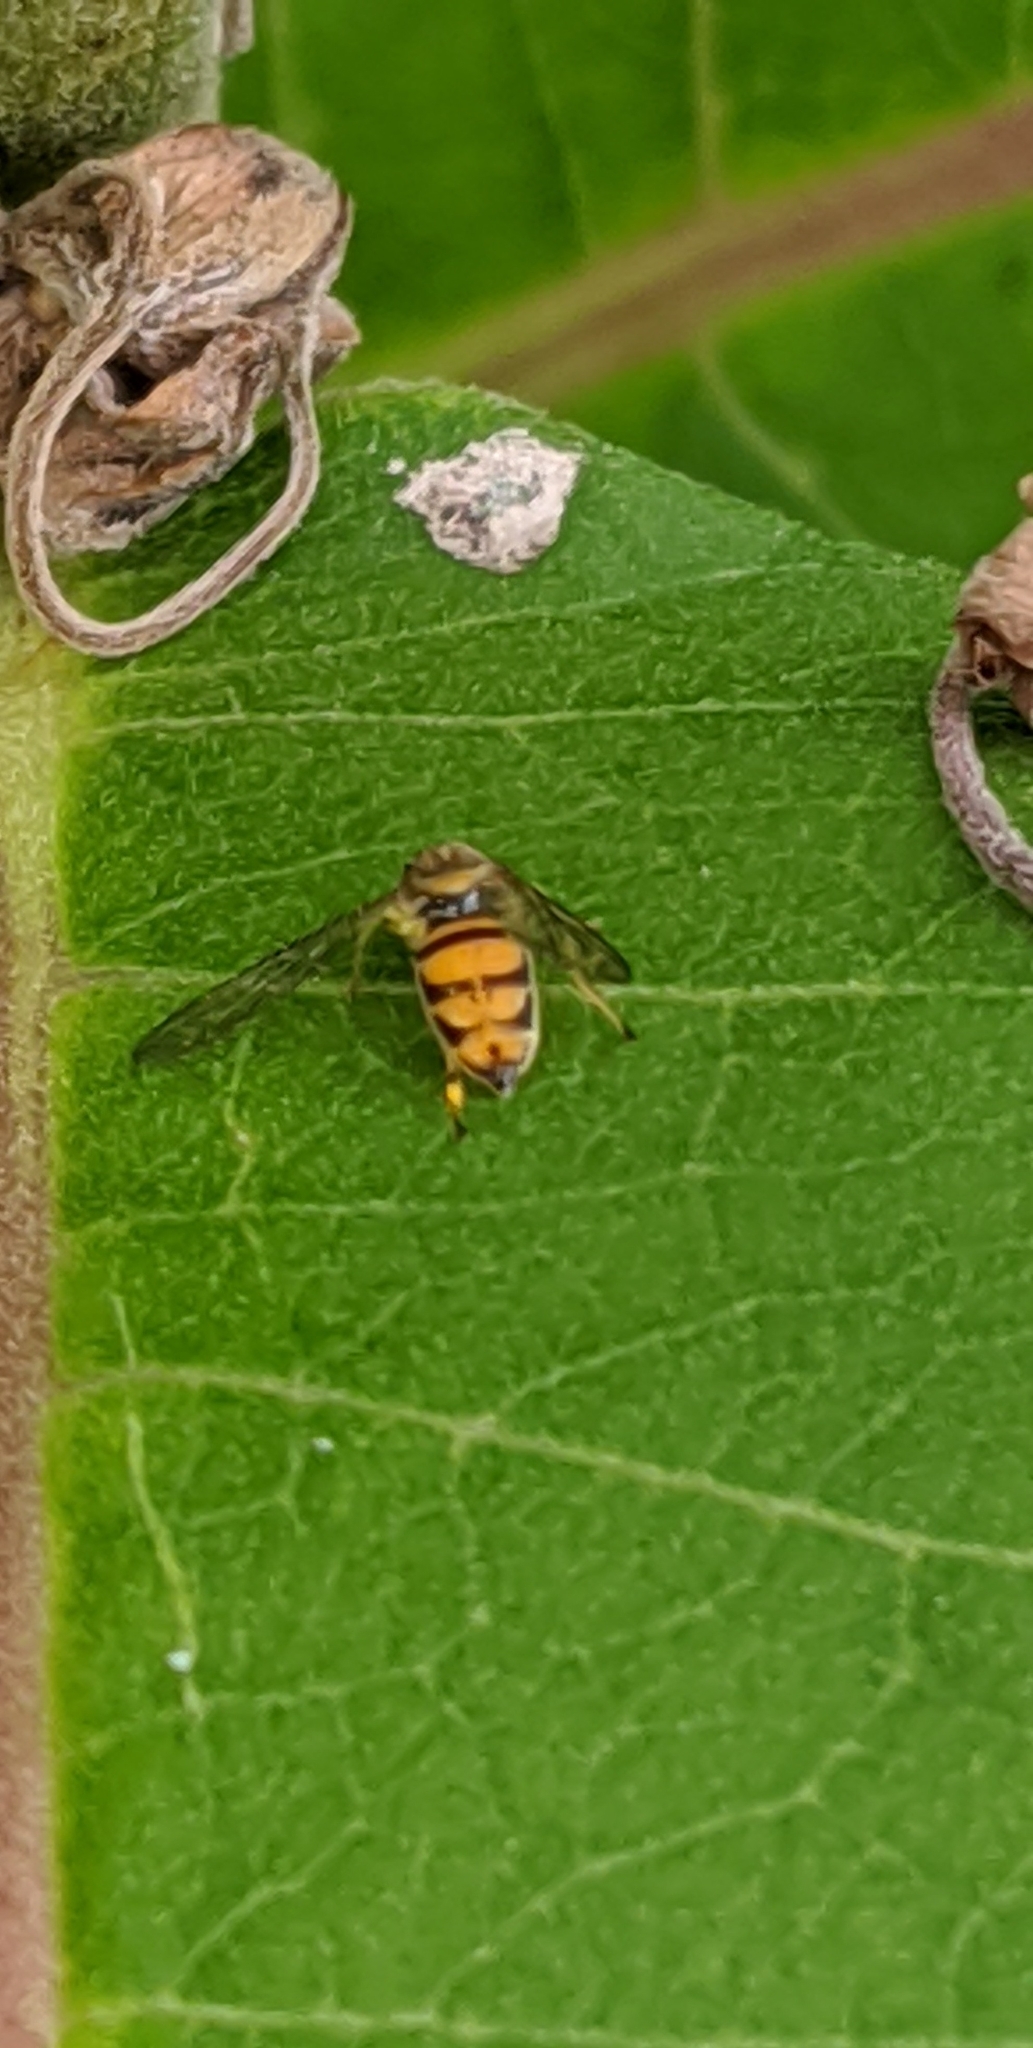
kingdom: Animalia
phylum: Arthropoda
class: Insecta
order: Diptera
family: Syrphidae
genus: Toxomerus
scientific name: Toxomerus marginatus
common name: Syrphid fly
